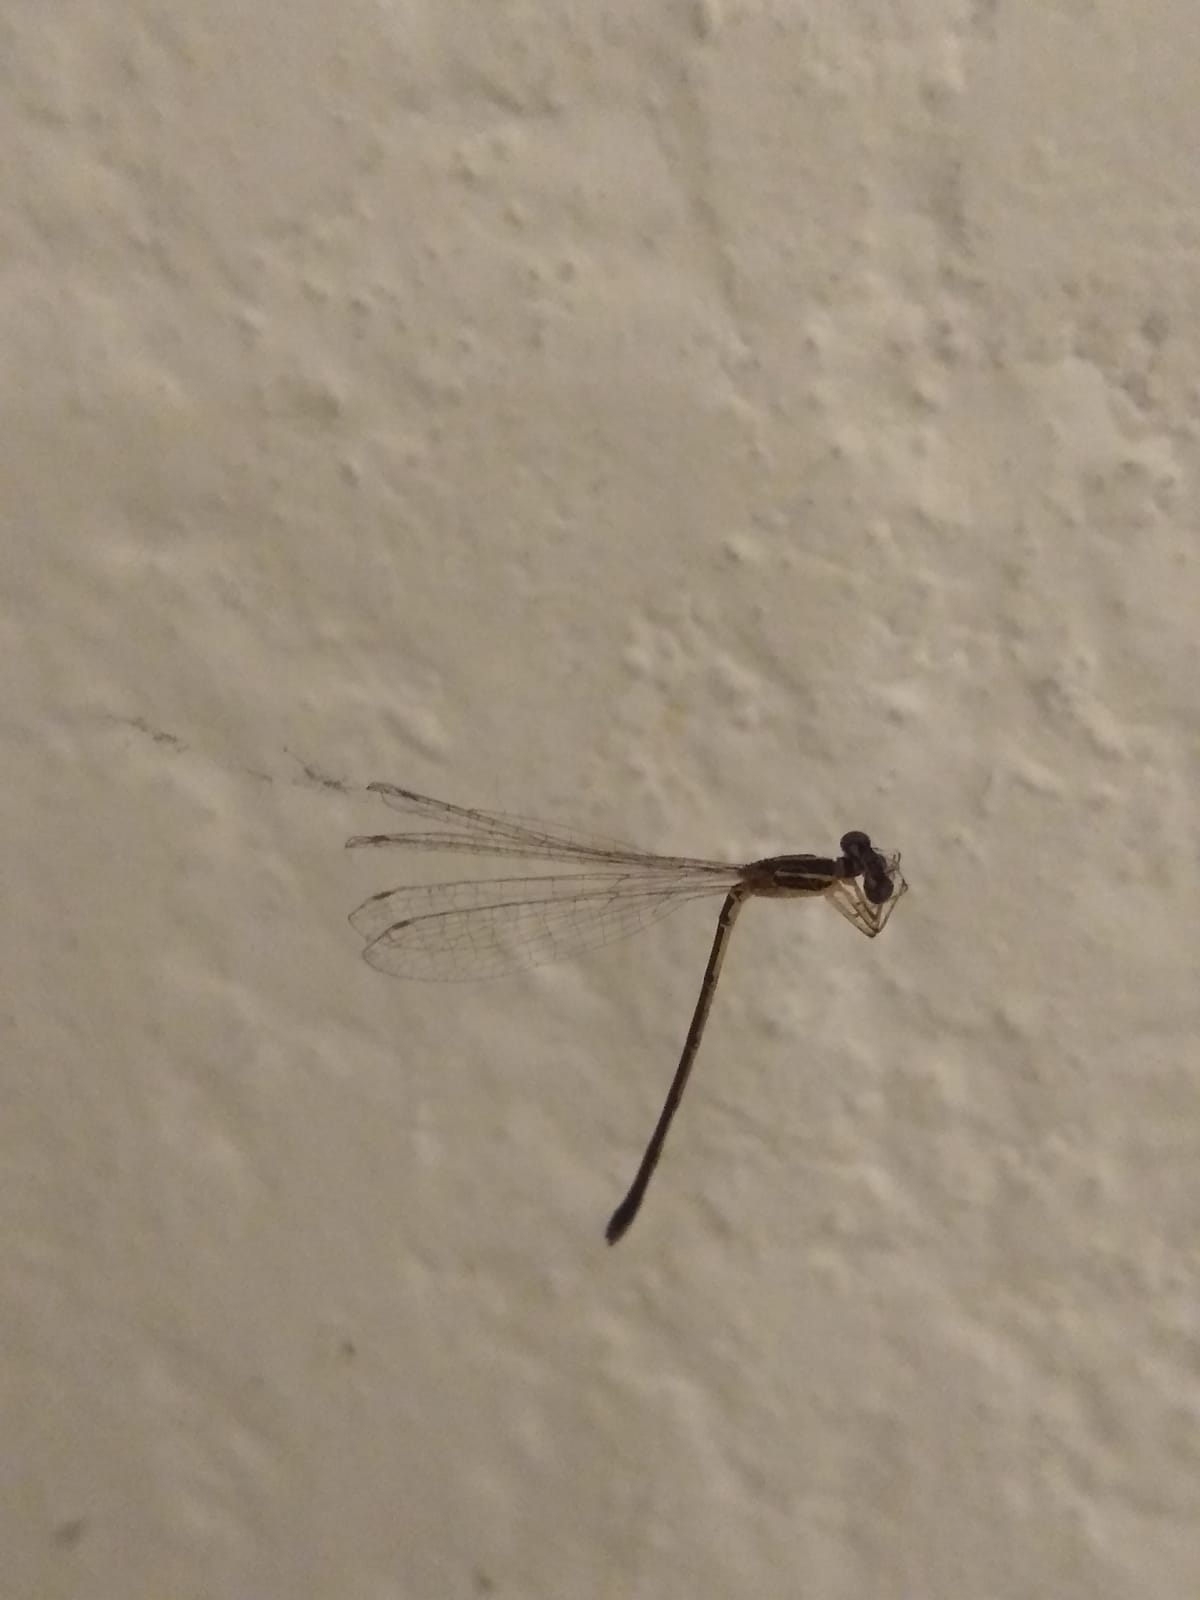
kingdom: Animalia
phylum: Arthropoda
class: Insecta
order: Odonata
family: Coenagrionidae
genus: Argentagrion
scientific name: Argentagrion ambiguum
